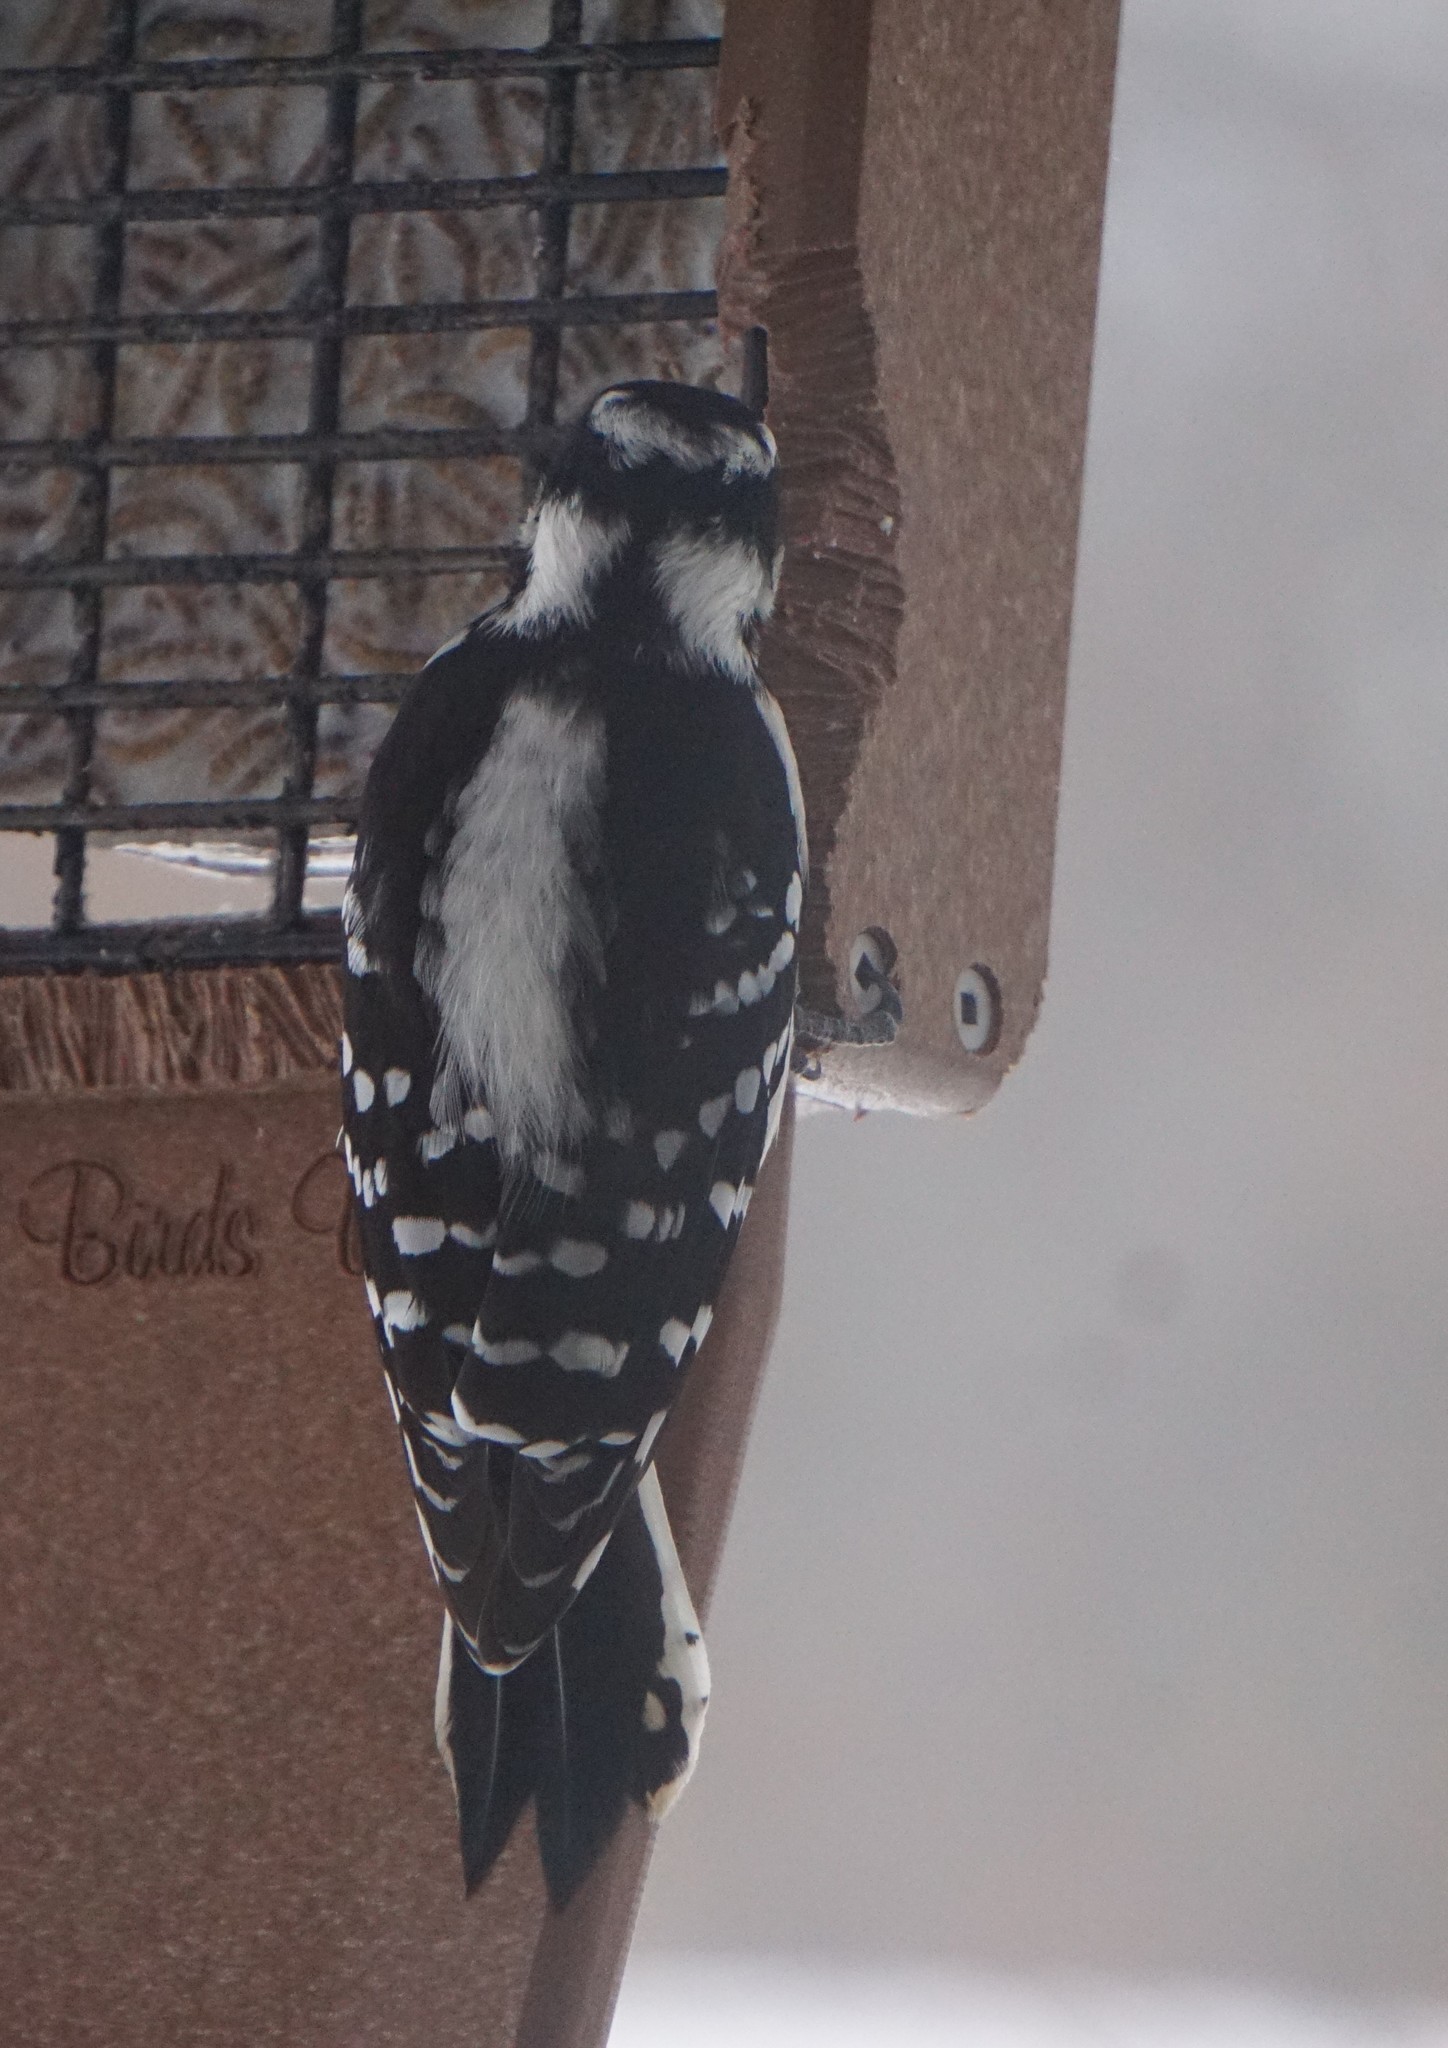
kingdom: Animalia
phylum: Chordata
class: Aves
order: Piciformes
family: Picidae
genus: Dryobates
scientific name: Dryobates pubescens
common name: Downy woodpecker
